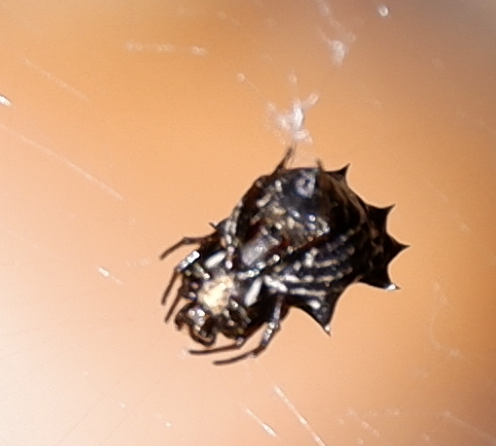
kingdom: Animalia
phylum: Arthropoda
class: Arachnida
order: Araneae
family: Araneidae
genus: Micrathena
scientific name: Micrathena gracilis
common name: Orb weavers
